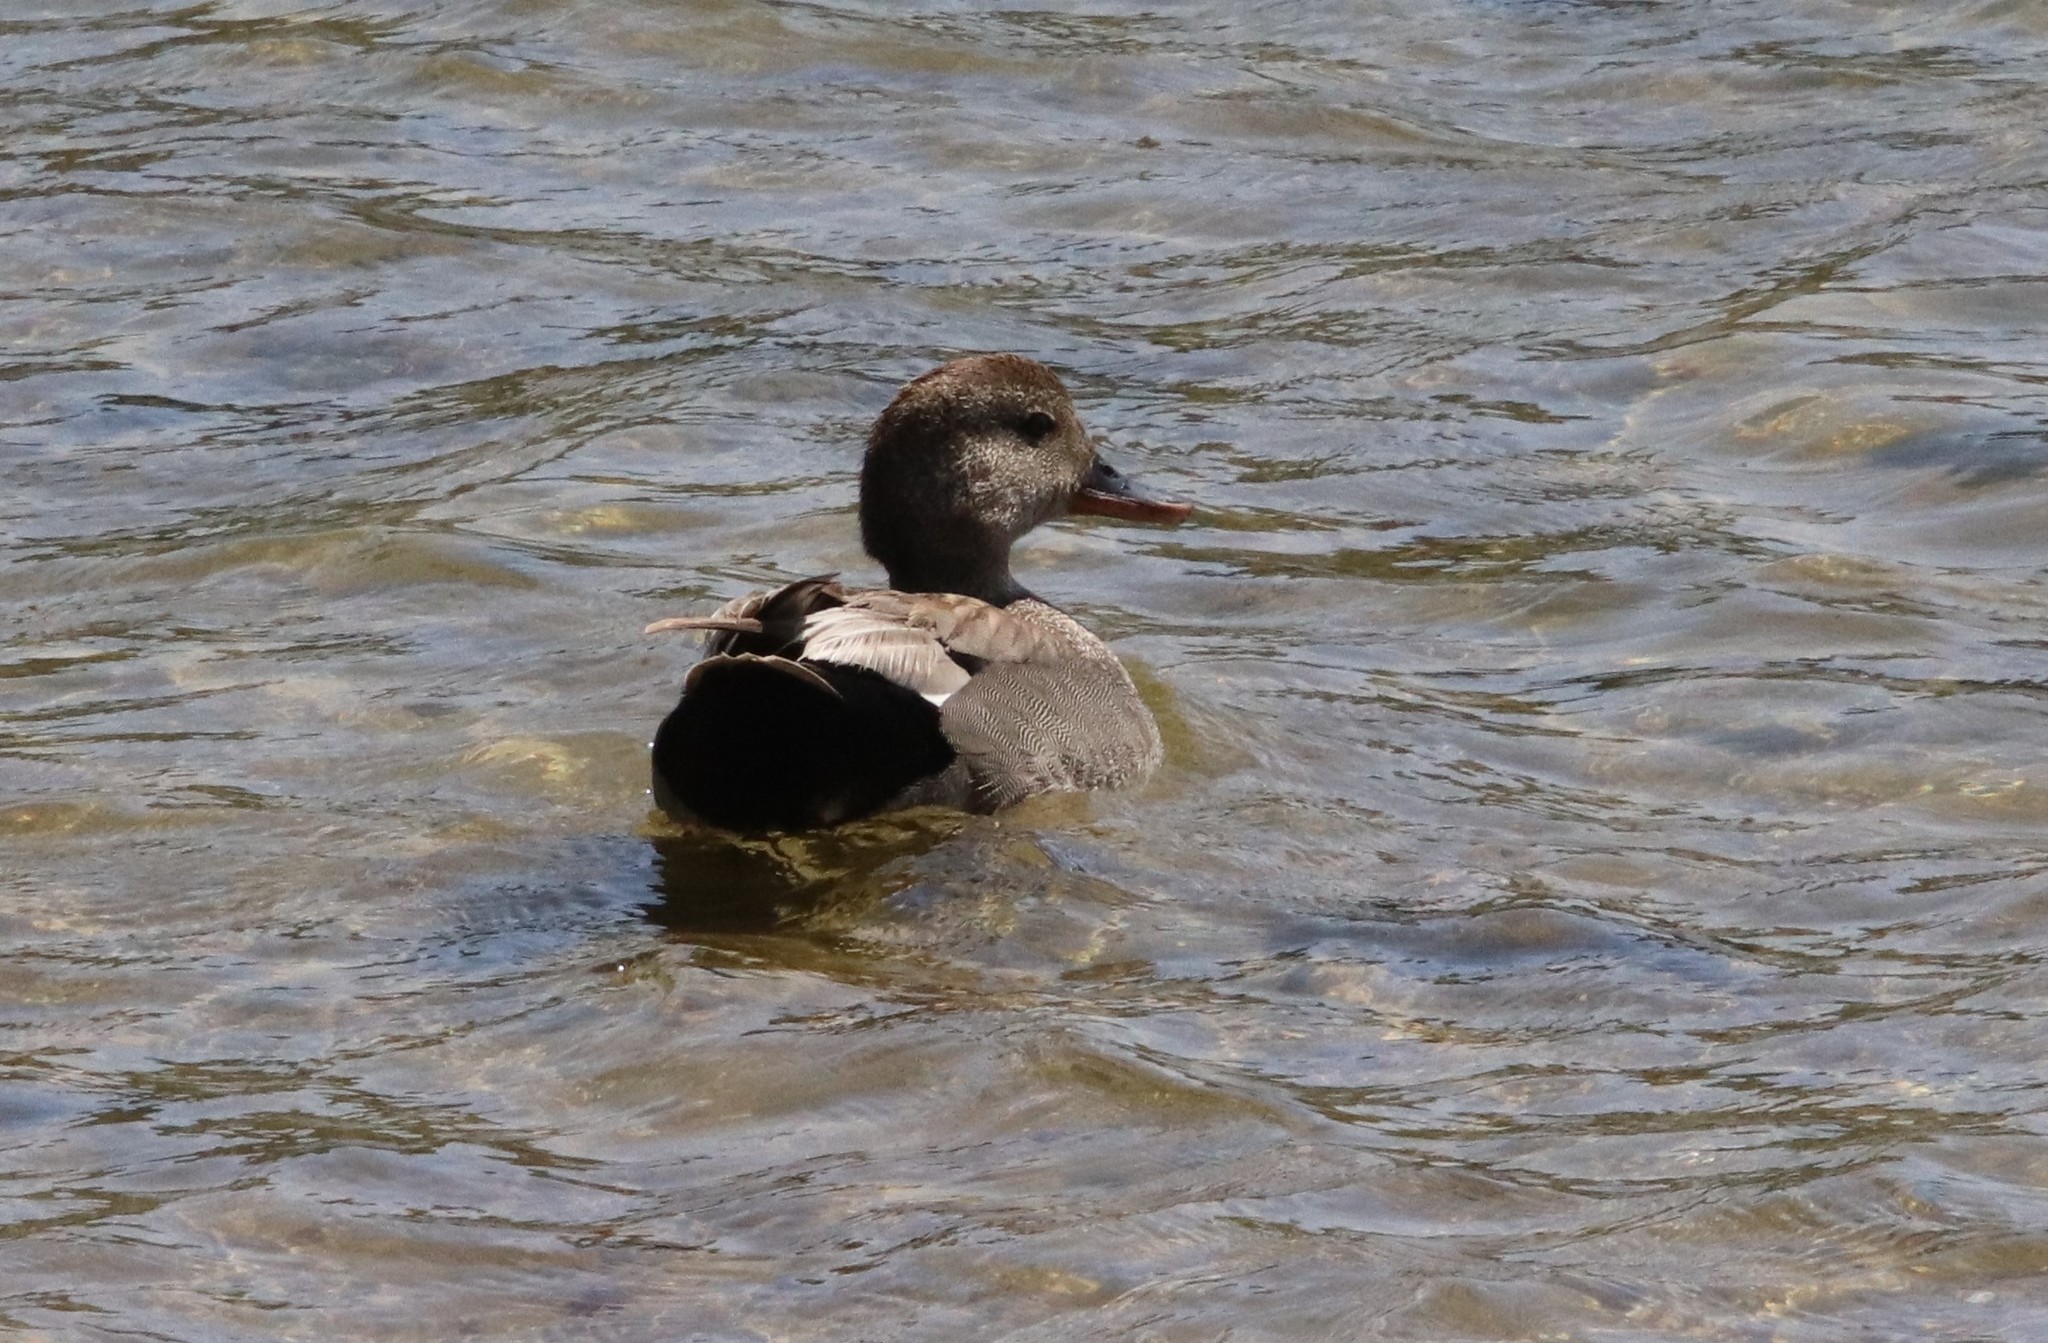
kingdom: Animalia
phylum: Chordata
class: Aves
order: Anseriformes
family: Anatidae
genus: Mareca
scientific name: Mareca strepera
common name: Gadwall
